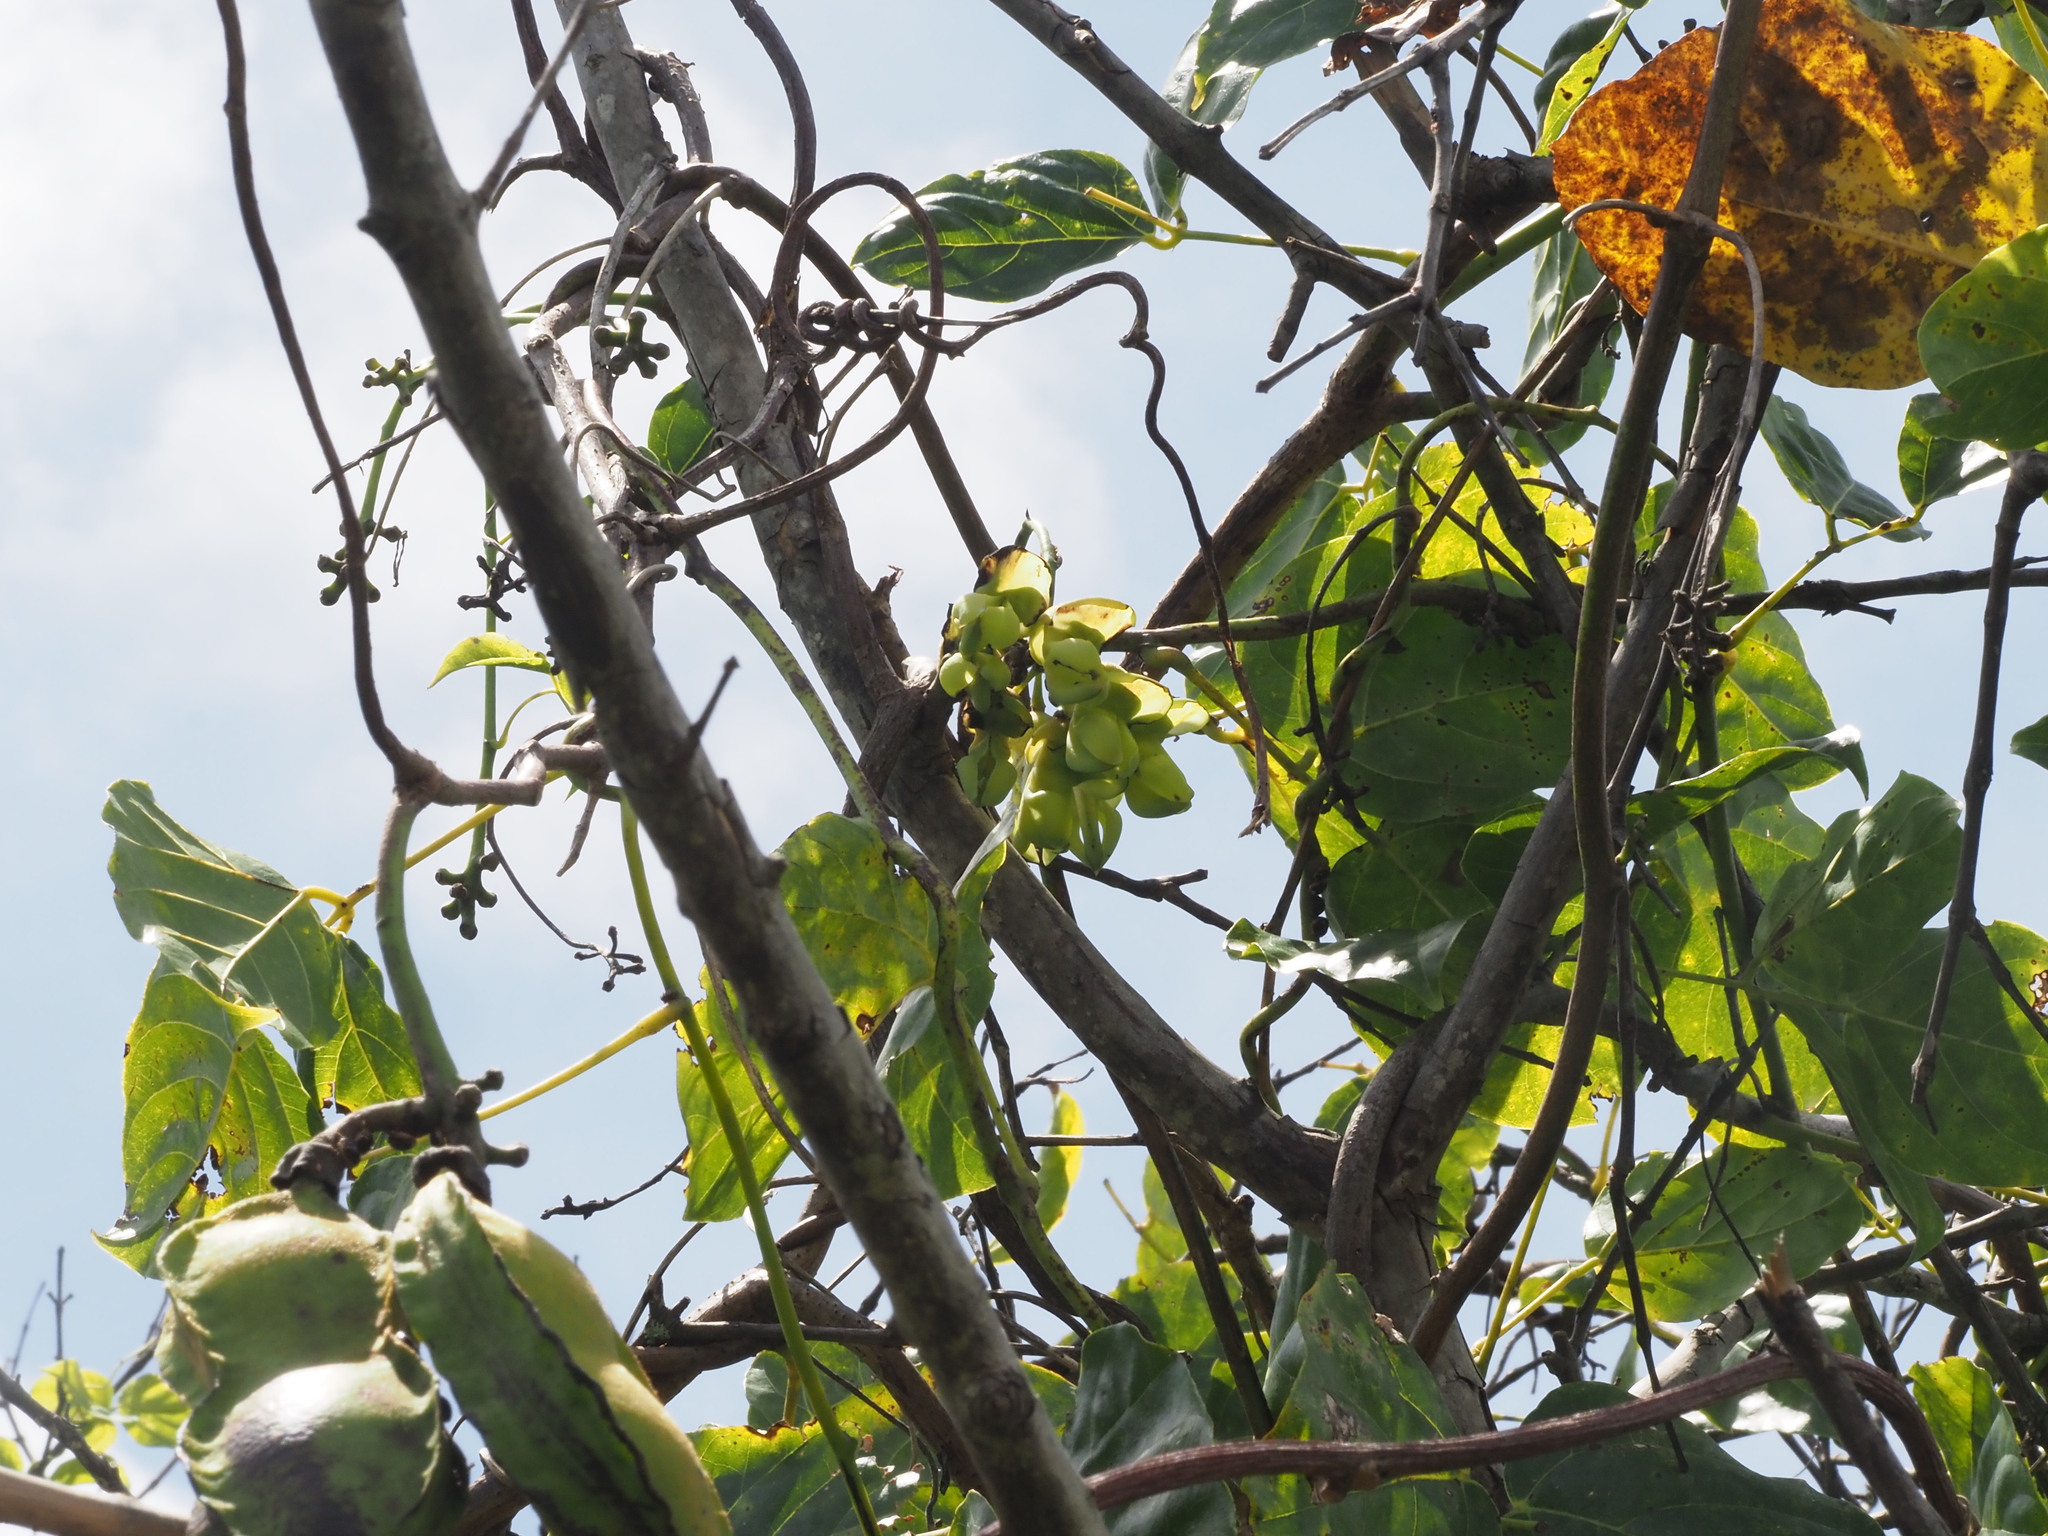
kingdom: Plantae
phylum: Tracheophyta
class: Magnoliopsida
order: Fabales
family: Fabaceae
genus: Mucuna
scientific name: Mucuna gigantea
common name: Black-bean
